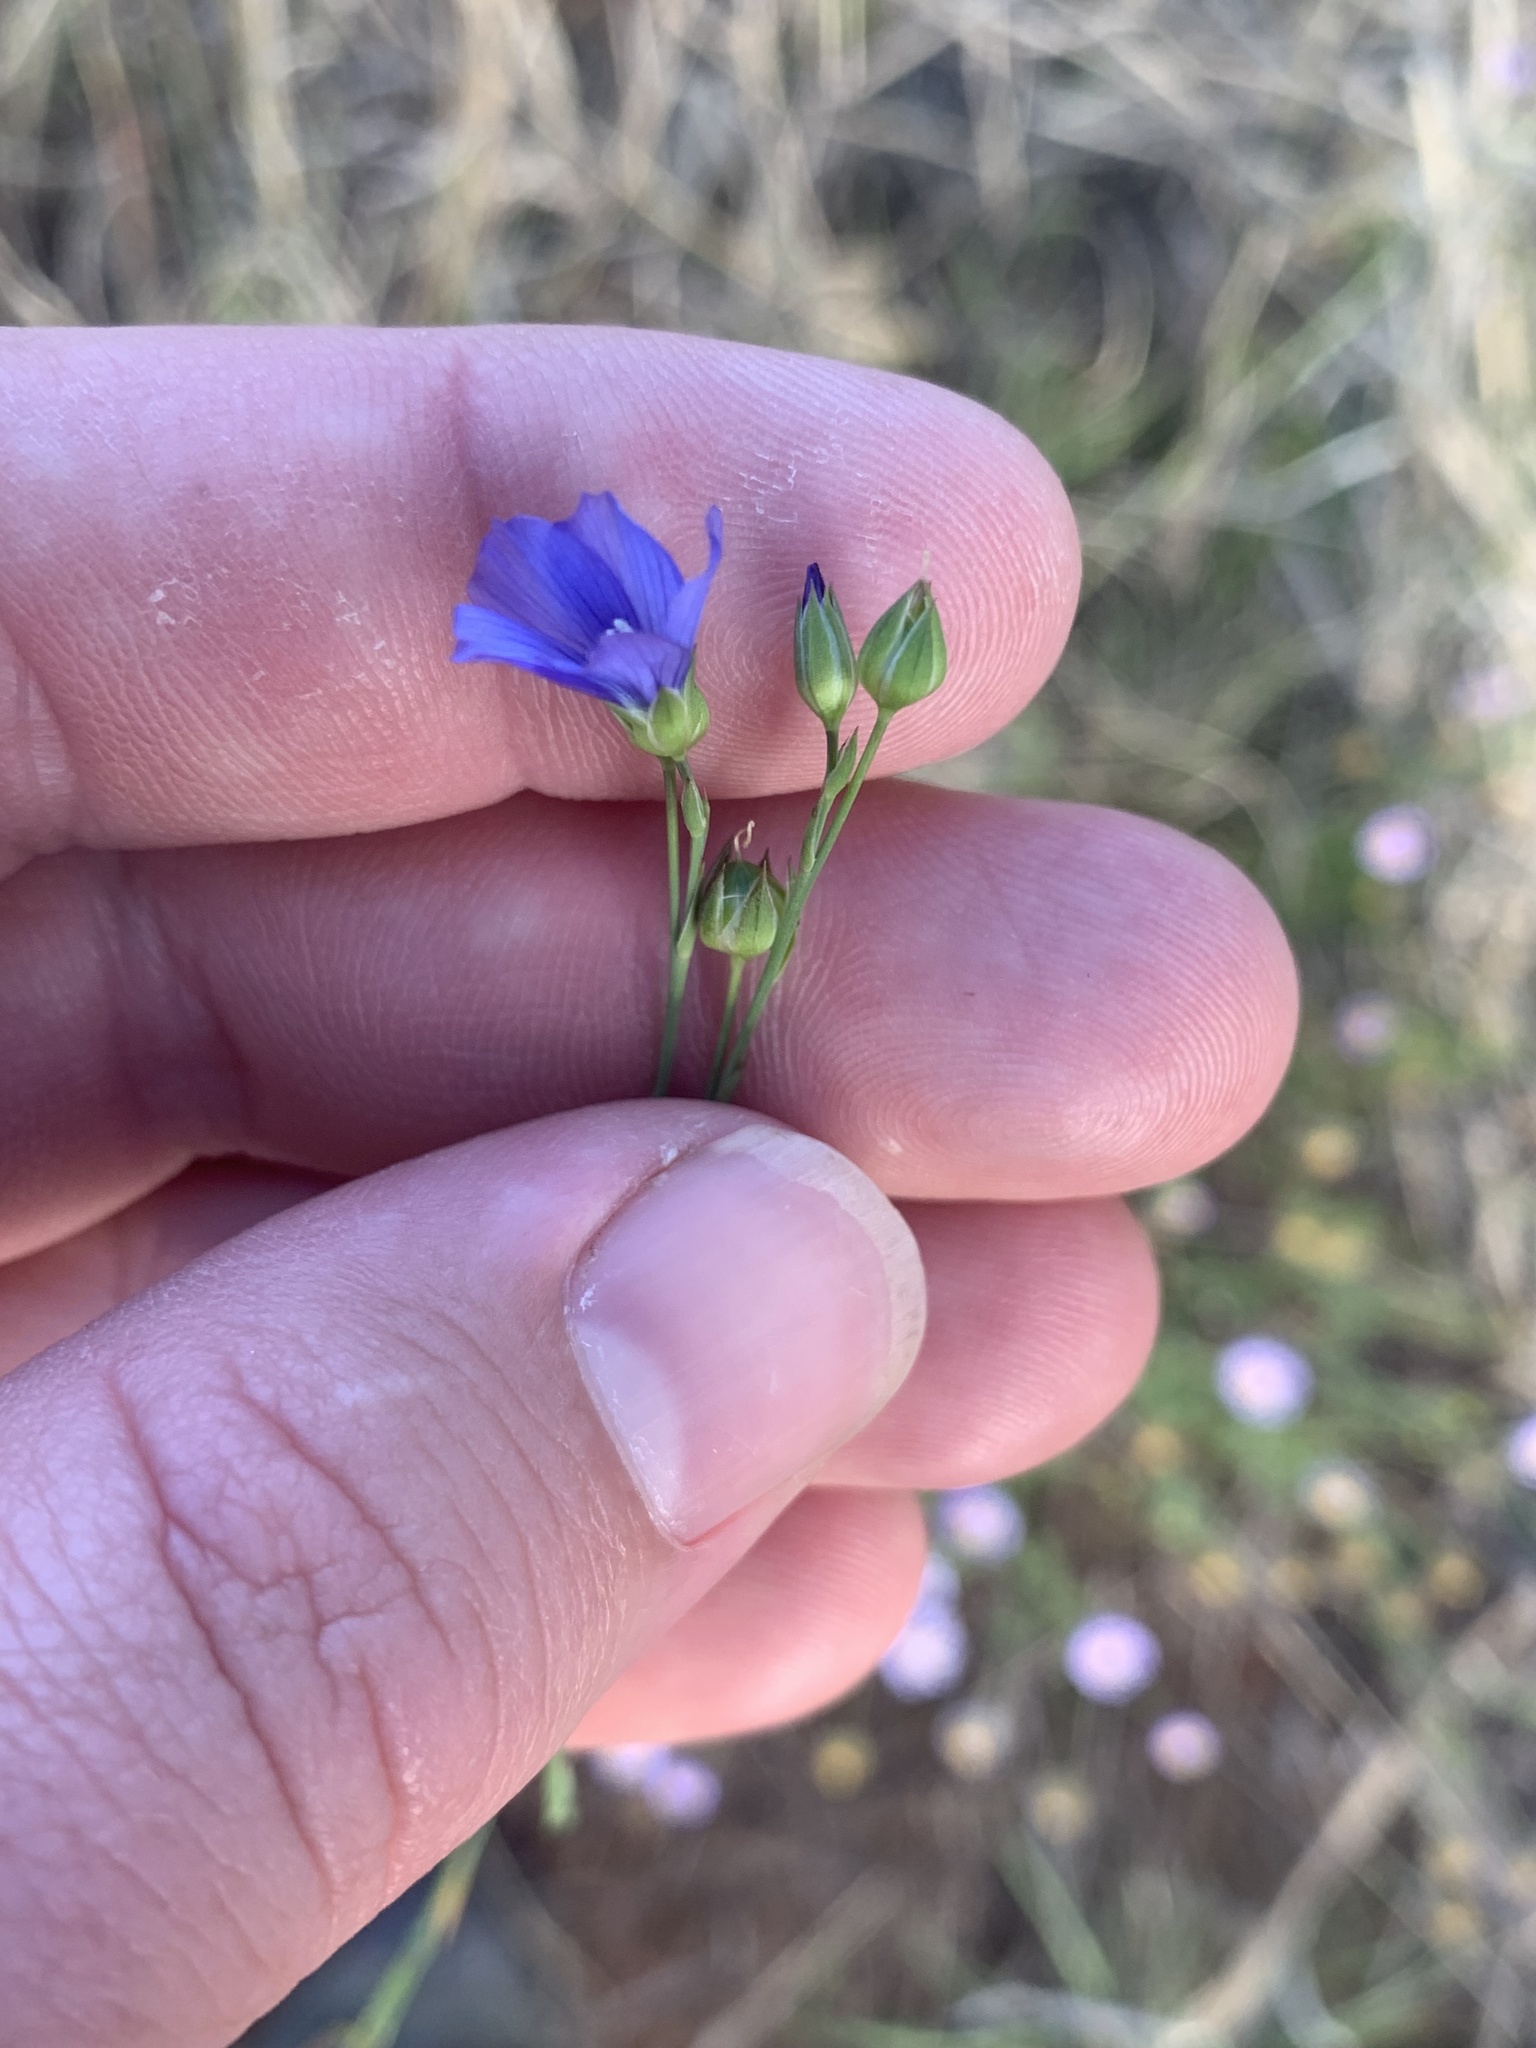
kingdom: Plantae
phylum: Tracheophyta
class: Magnoliopsida
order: Malpighiales
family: Linaceae
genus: Linum
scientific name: Linum marginale
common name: Wild flax
